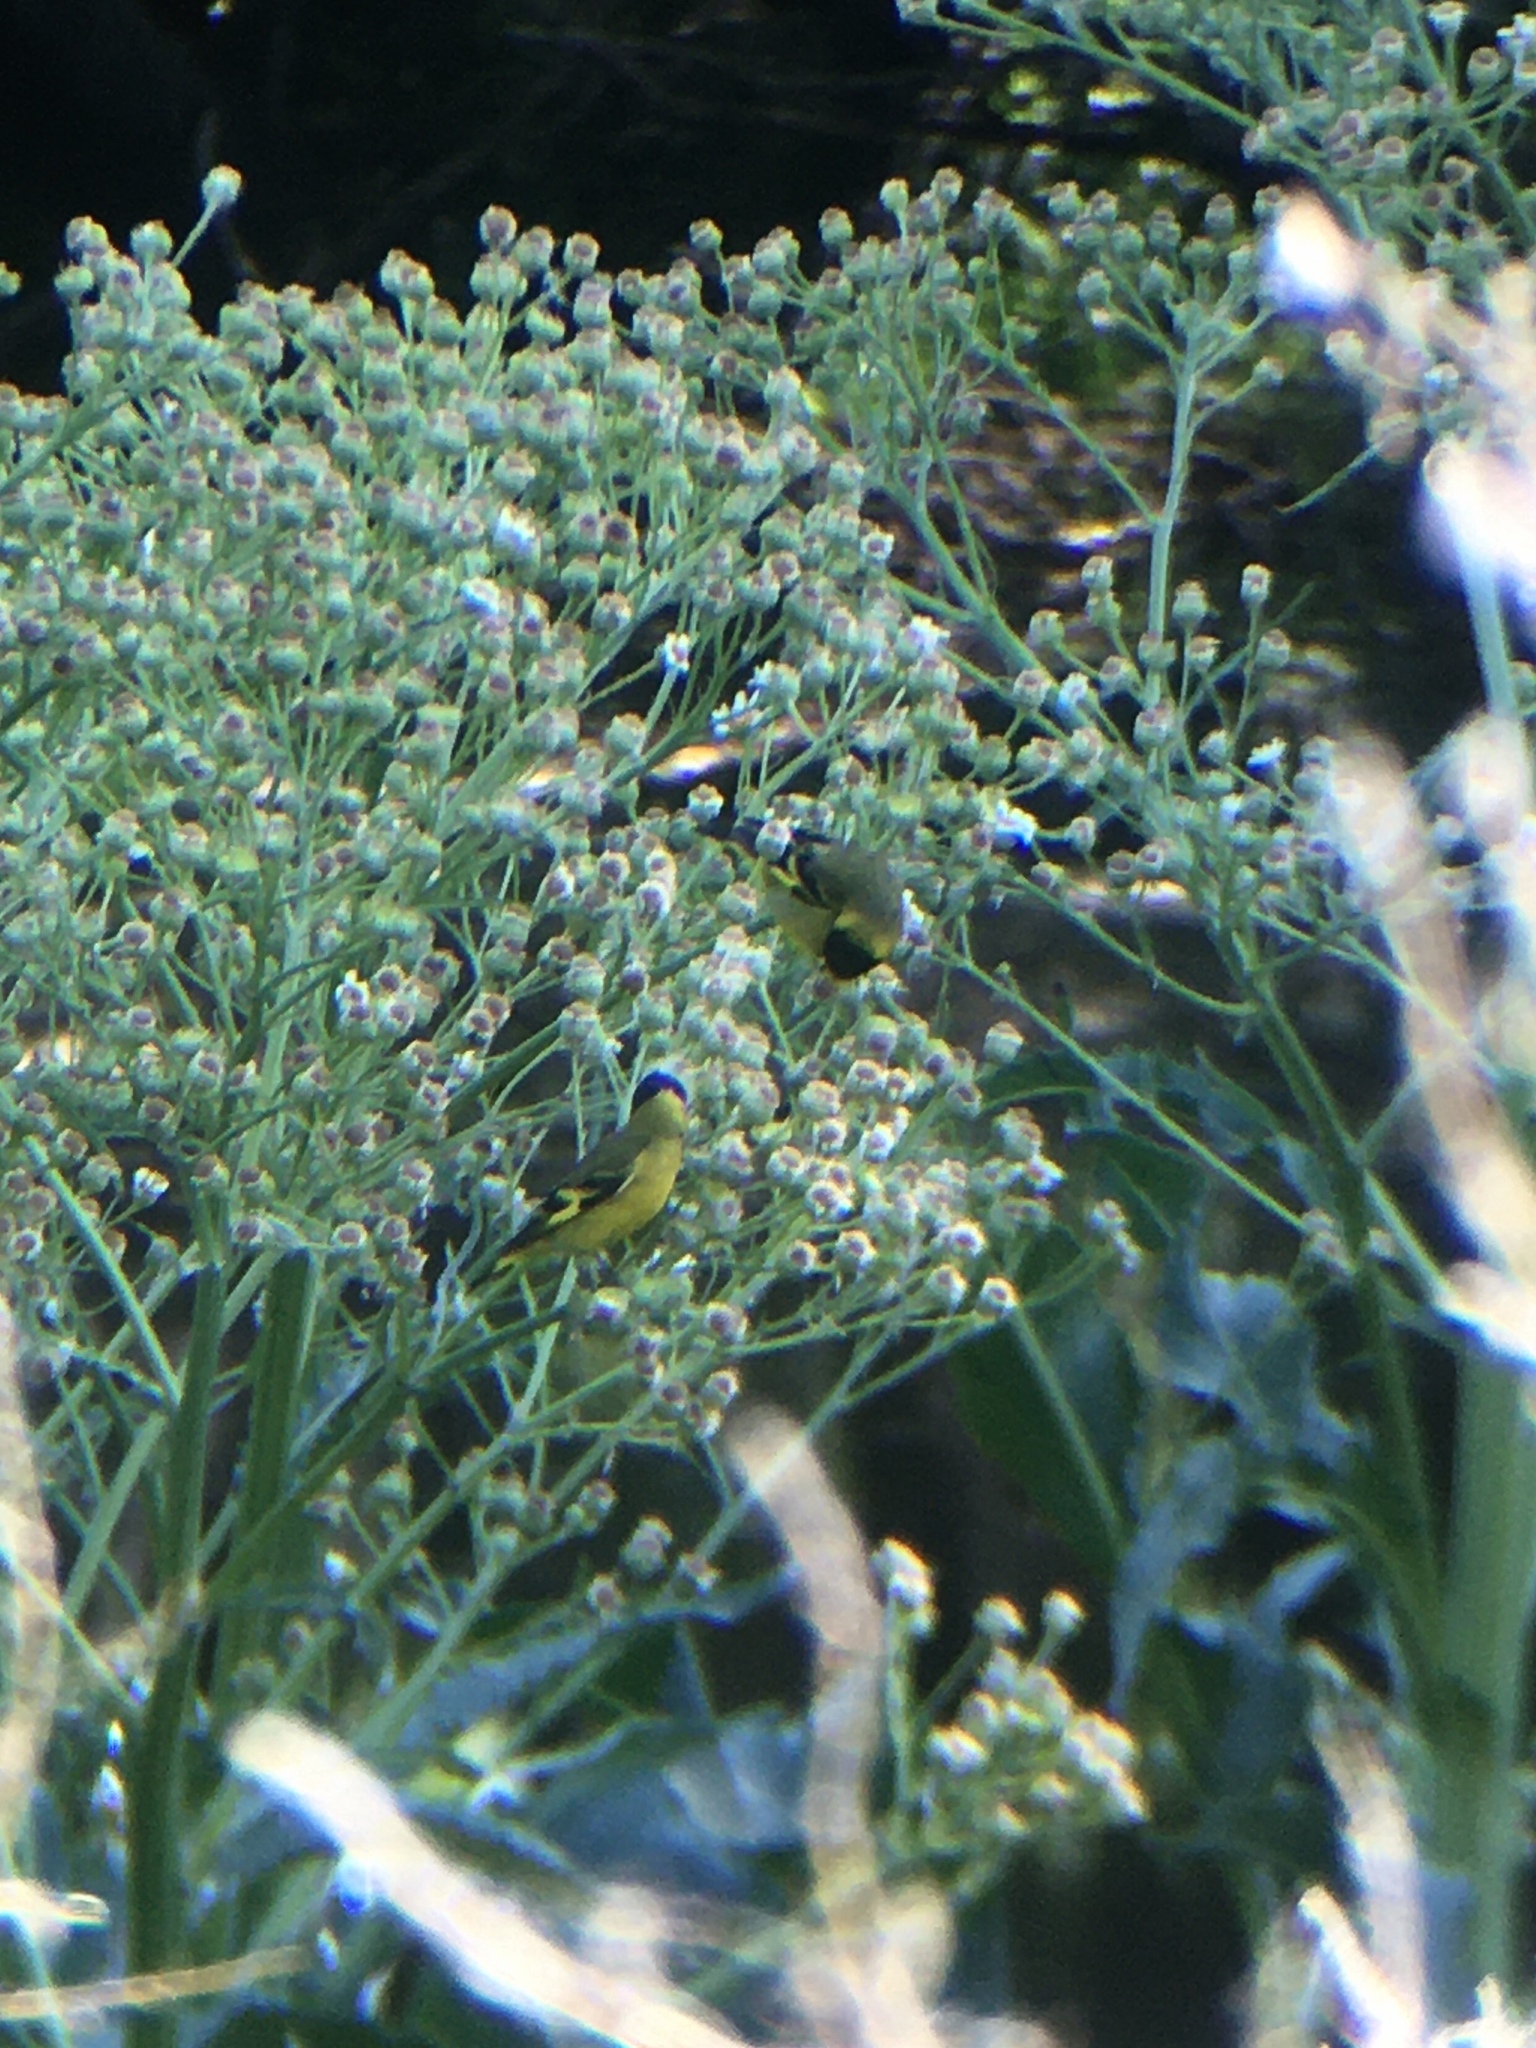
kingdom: Animalia
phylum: Chordata
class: Aves
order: Passeriformes
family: Fringillidae
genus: Spinus
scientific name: Spinus magellanicus
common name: Hooded siskin
